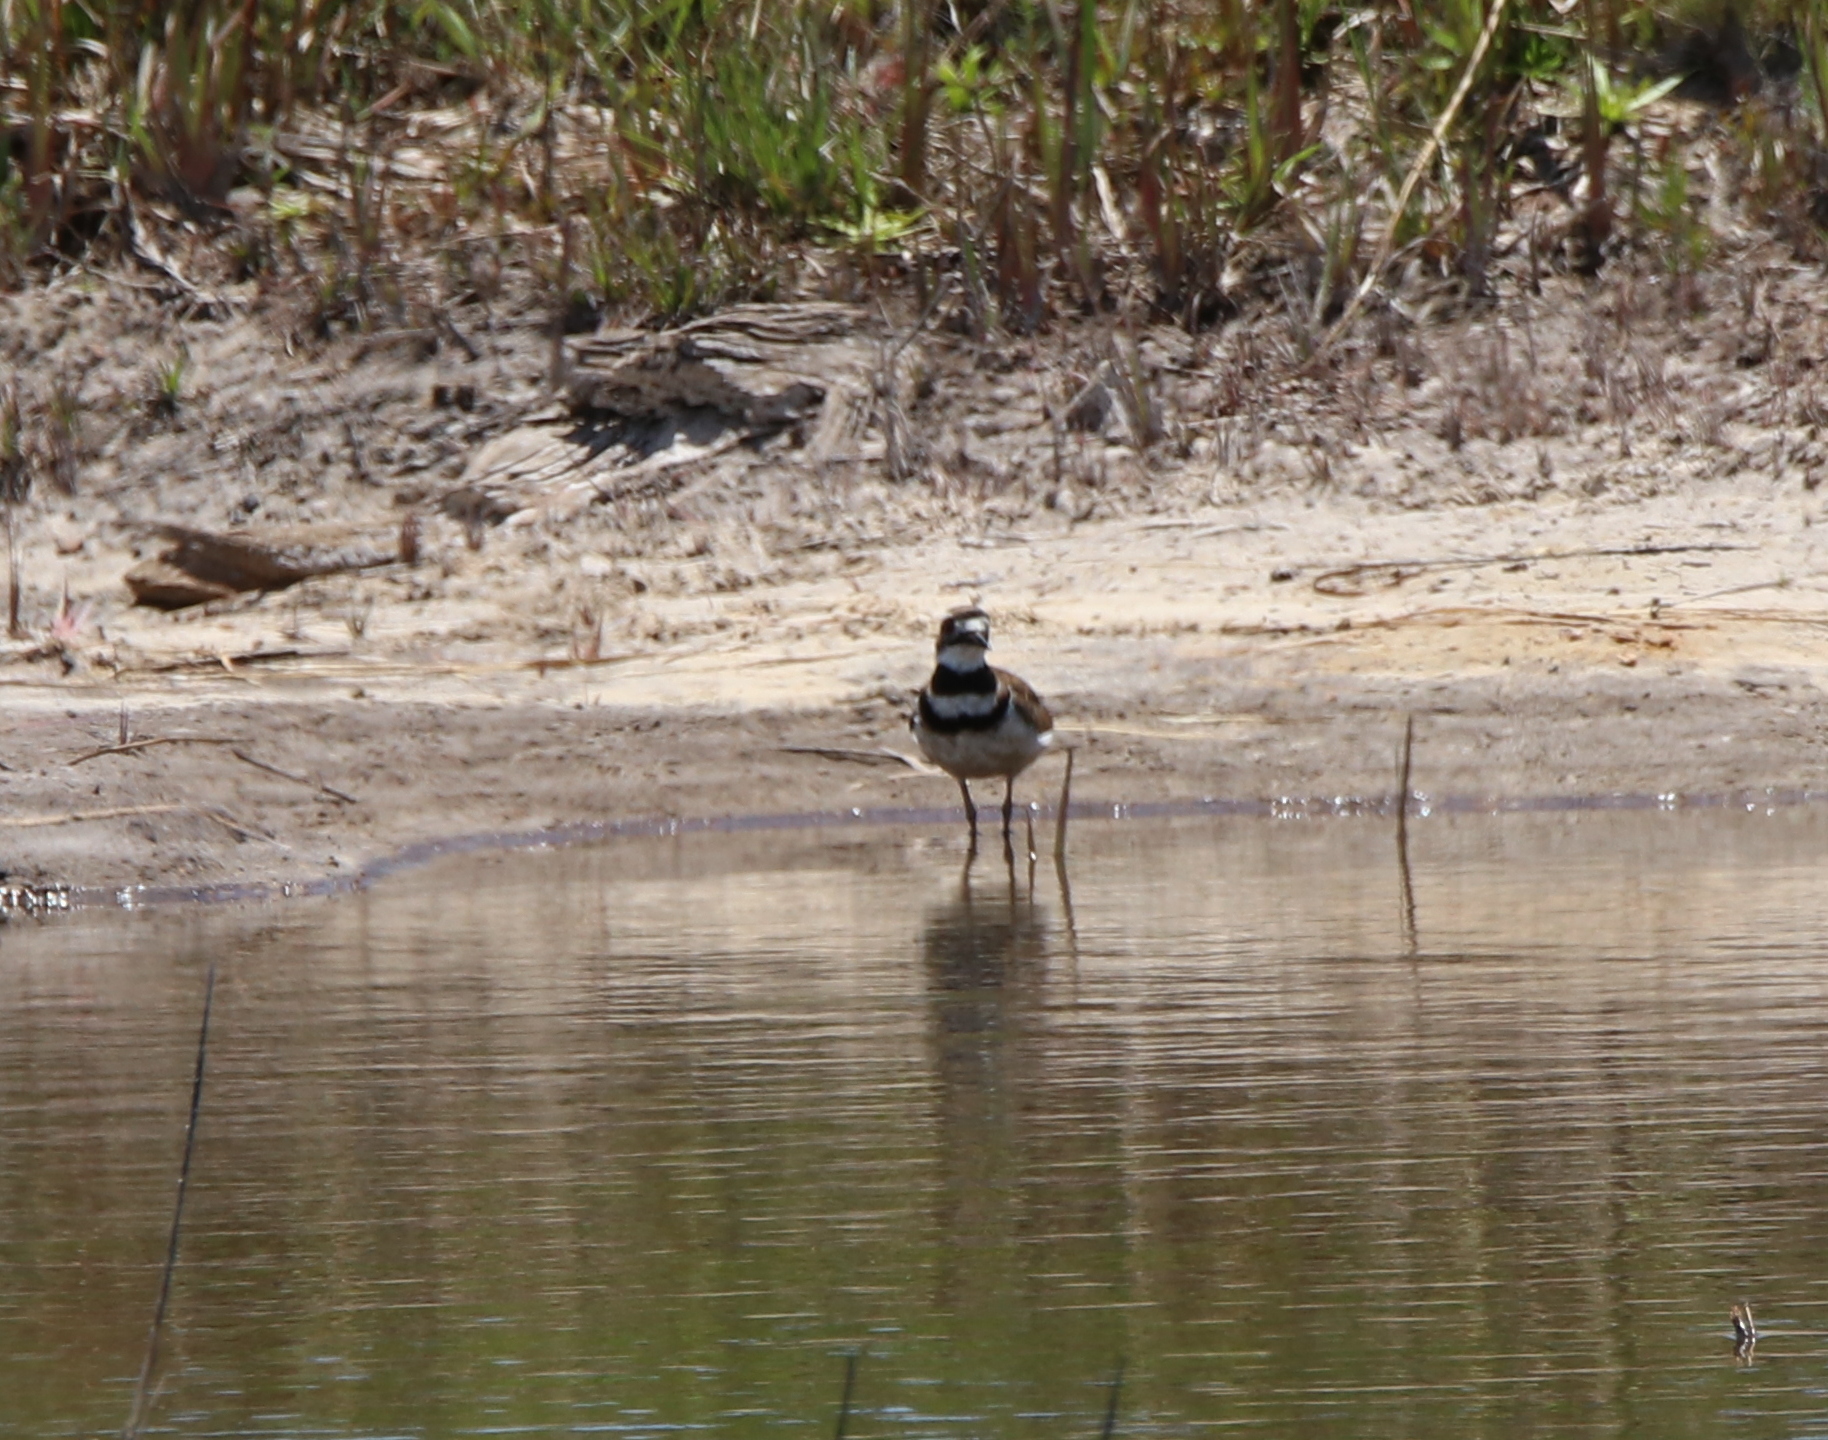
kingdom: Animalia
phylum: Chordata
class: Aves
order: Charadriiformes
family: Charadriidae
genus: Charadrius
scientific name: Charadrius vociferus
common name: Killdeer
